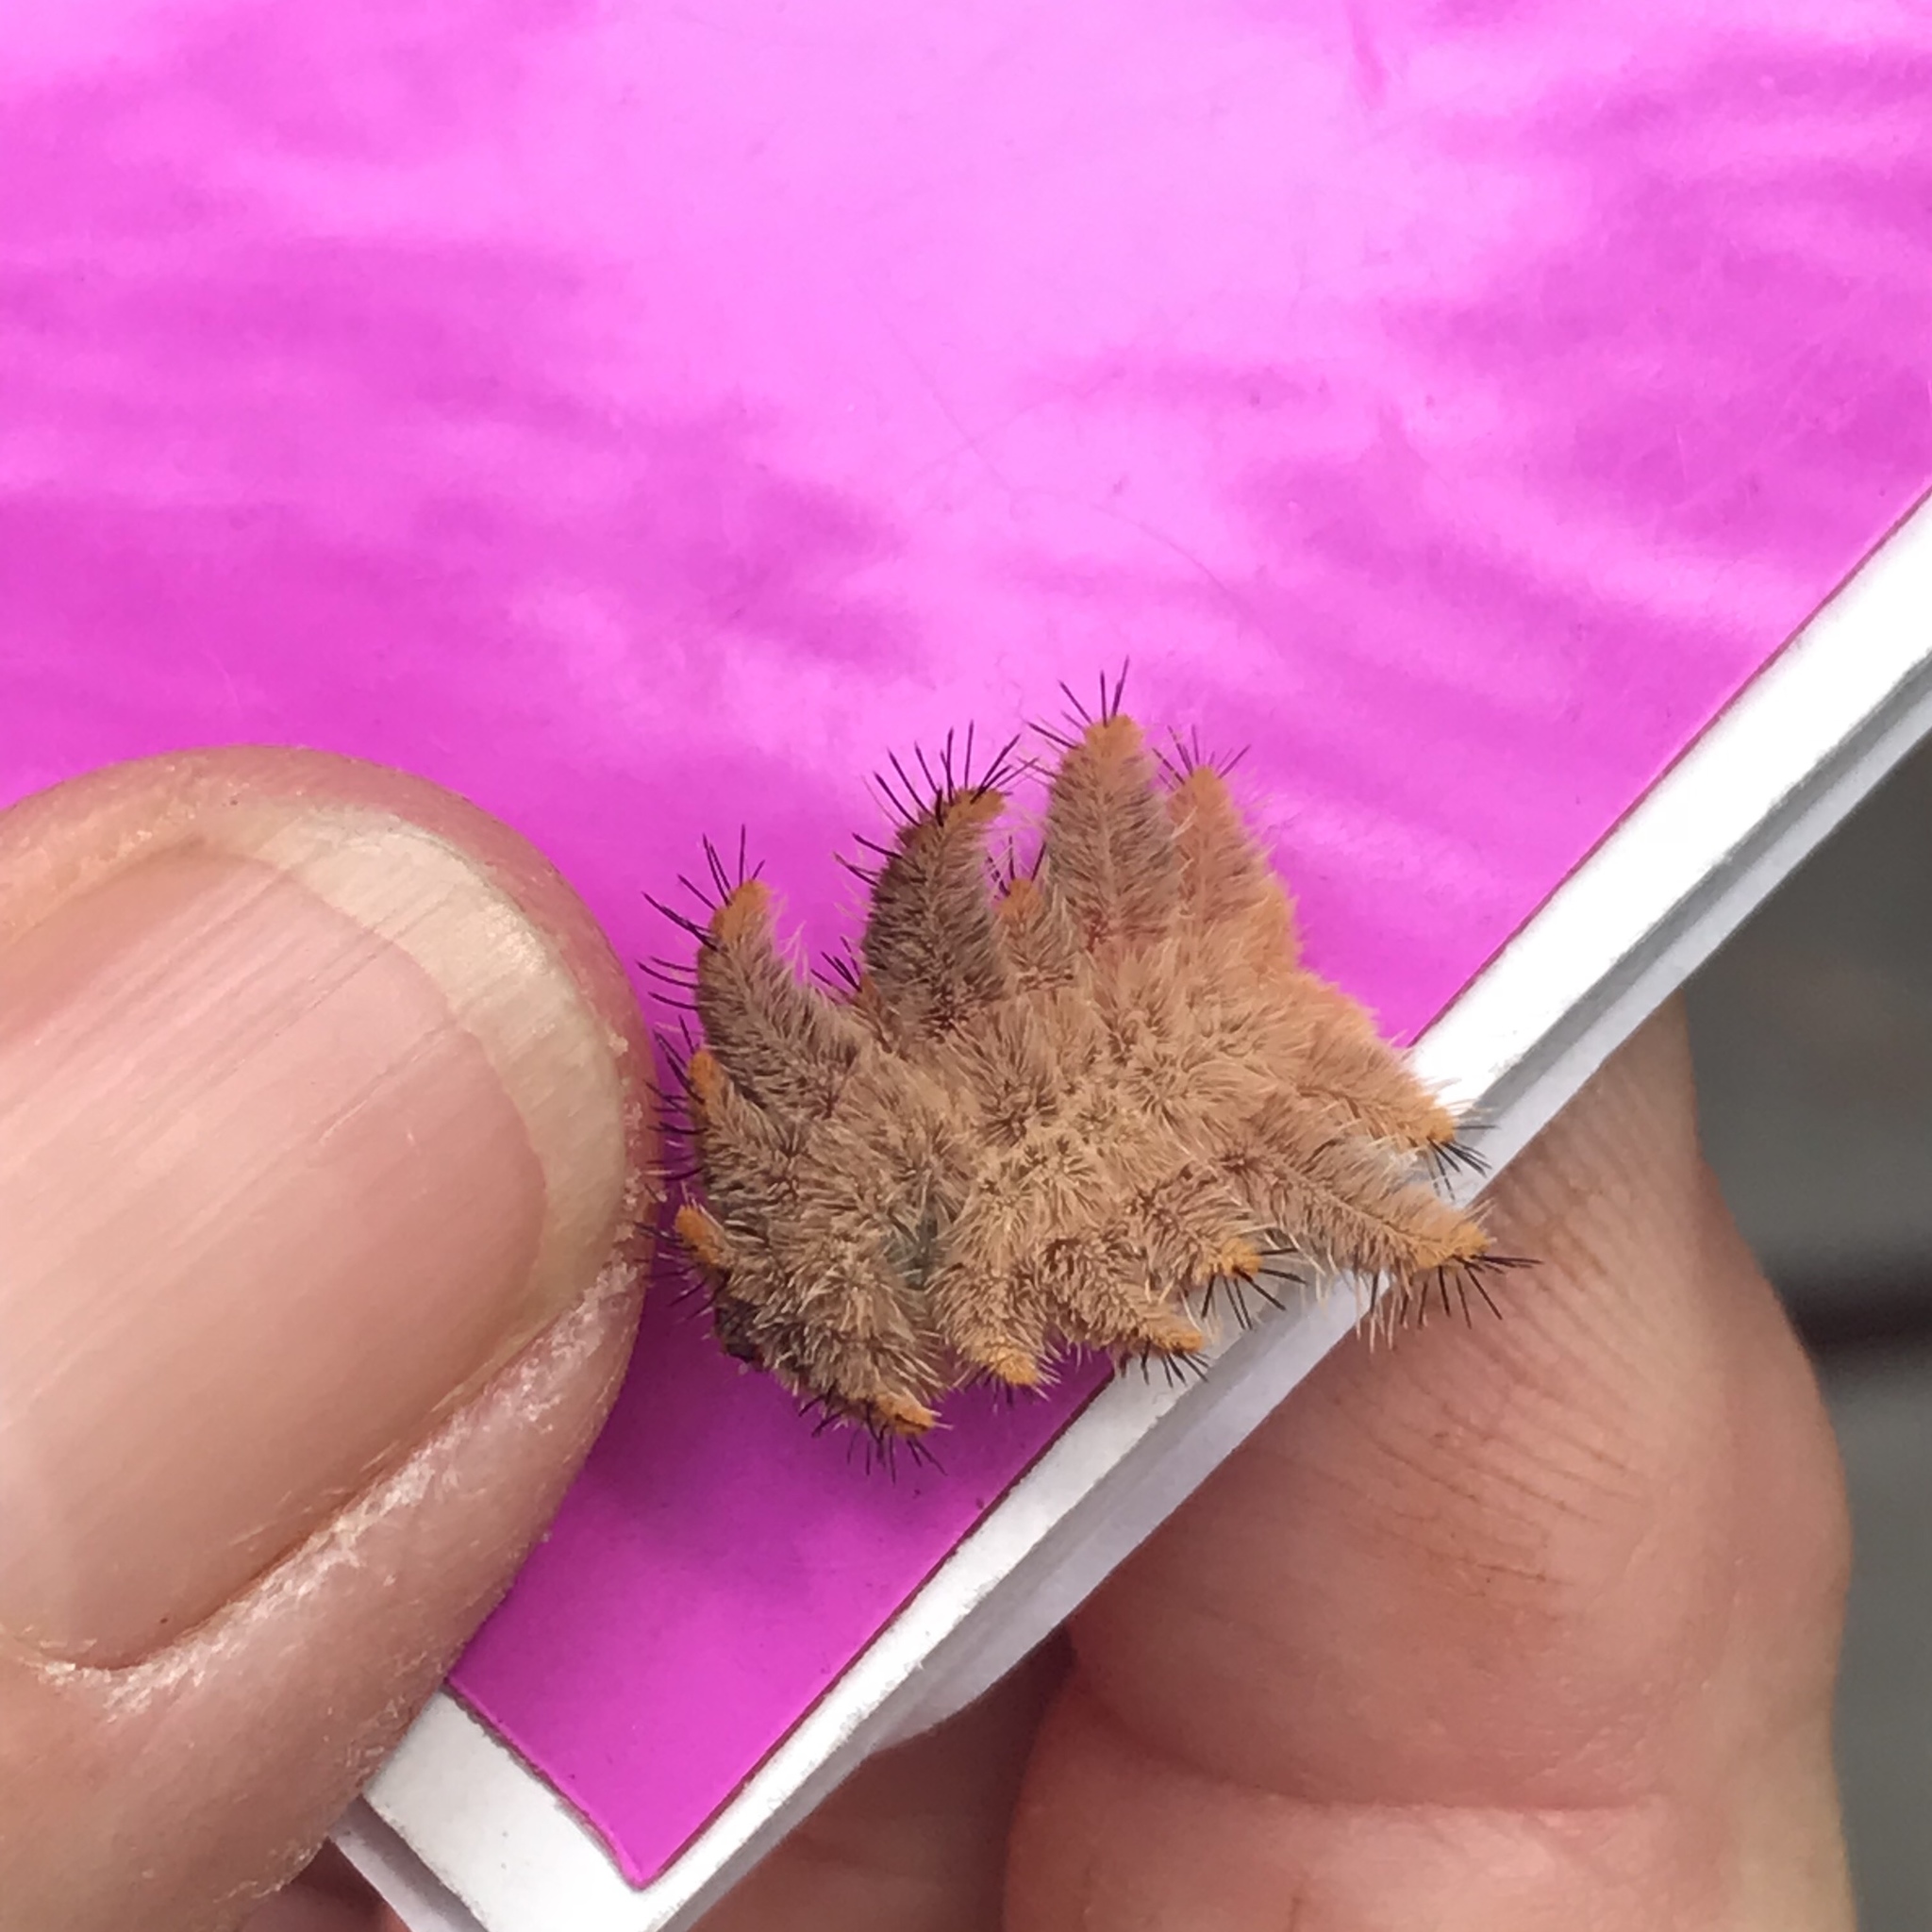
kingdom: Animalia
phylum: Arthropoda
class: Insecta
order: Lepidoptera
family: Limacodidae
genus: Phobetron
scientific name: Phobetron pithecium
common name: Hag moth
